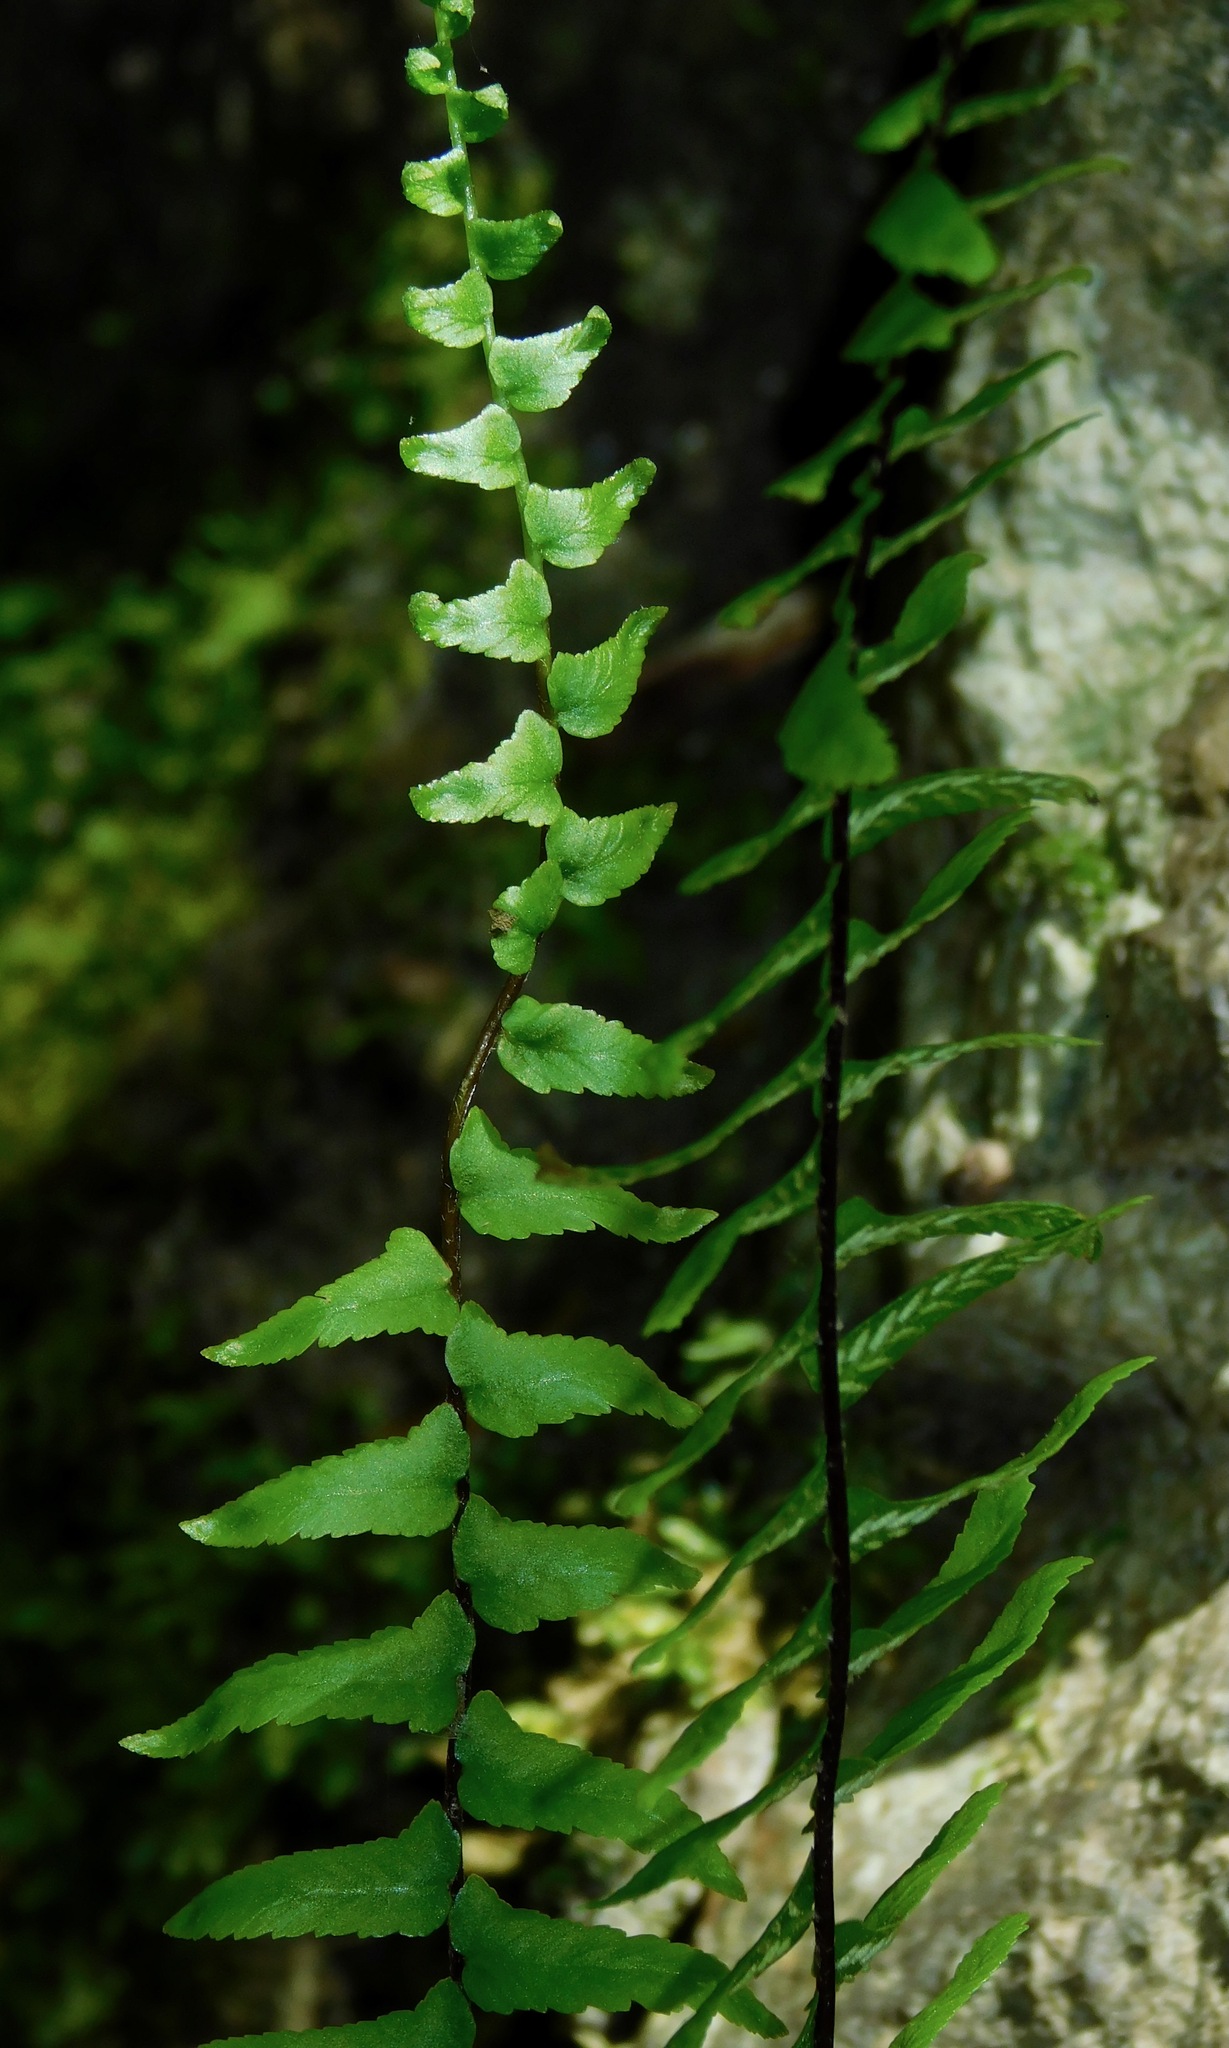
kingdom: Plantae
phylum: Tracheophyta
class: Polypodiopsida
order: Polypodiales
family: Aspleniaceae
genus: Asplenium
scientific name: Asplenium platyneuron
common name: Ebony spleenwort
